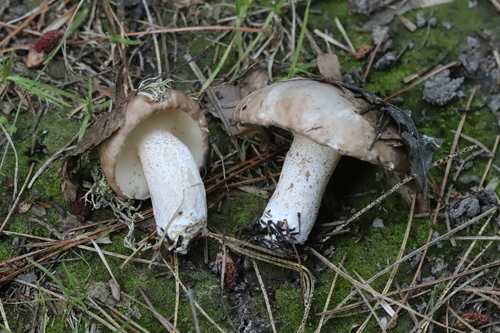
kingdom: Fungi
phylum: Basidiomycota
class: Agaricomycetes
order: Boletales
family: Suillaceae
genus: Suillus
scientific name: Suillus placidus
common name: Slippery white bolete
